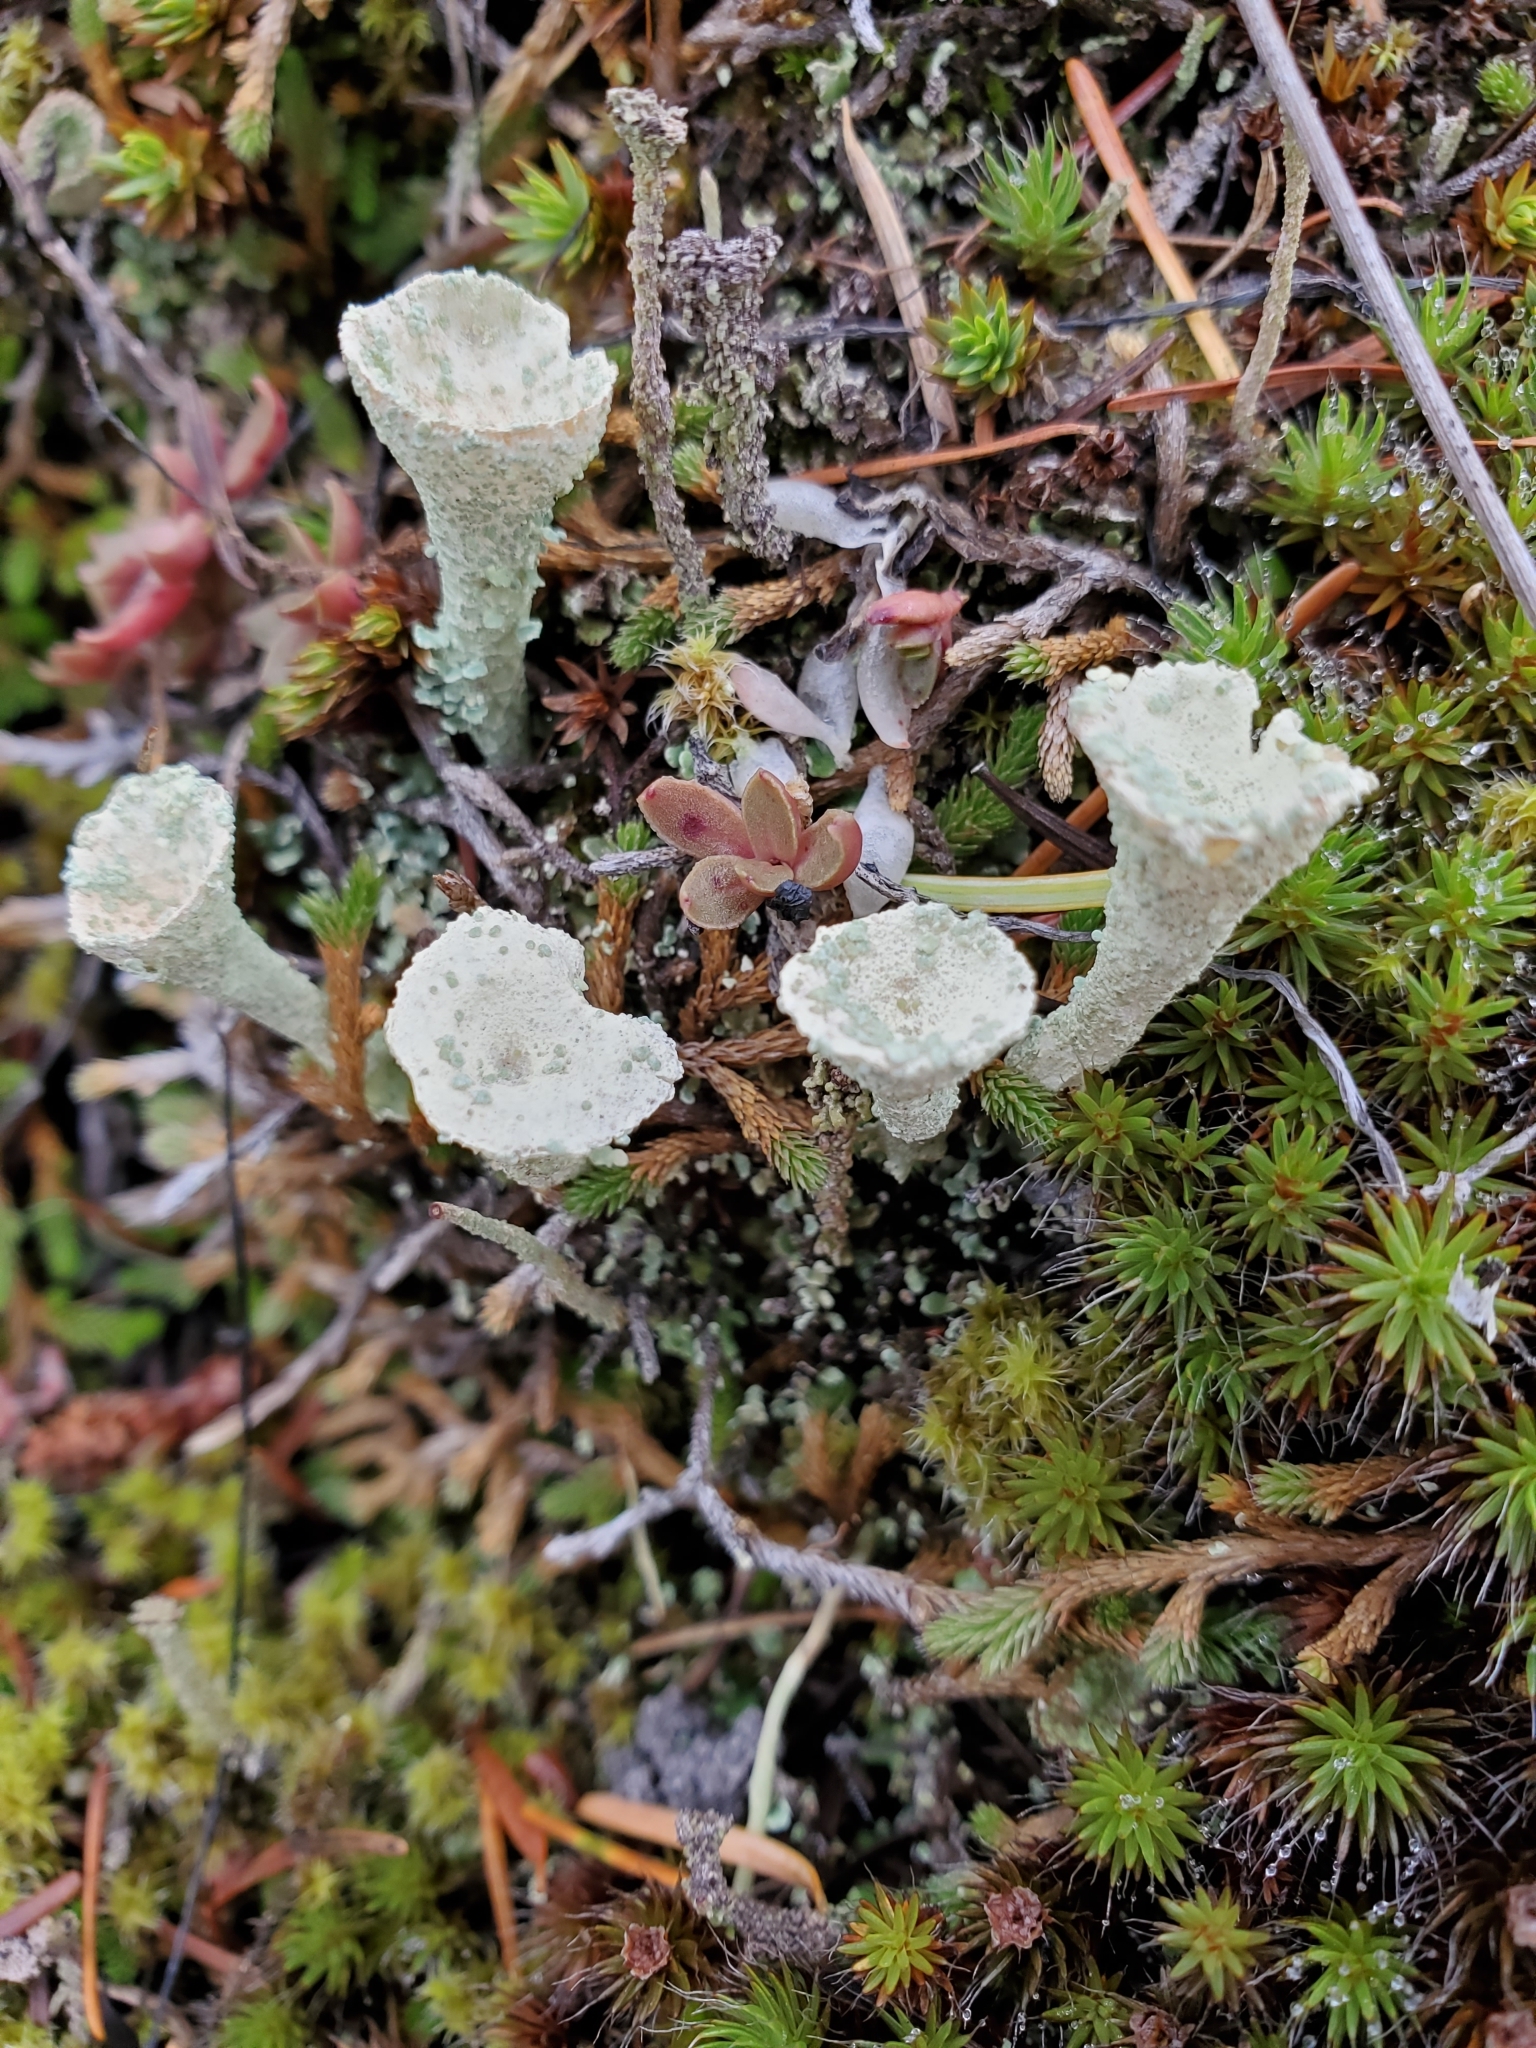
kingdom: Fungi
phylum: Ascomycota
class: Lecanoromycetes
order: Lecanorales
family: Cladoniaceae
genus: Cladonia
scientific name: Cladonia fimbriata
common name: Powdered trumpet lichen
